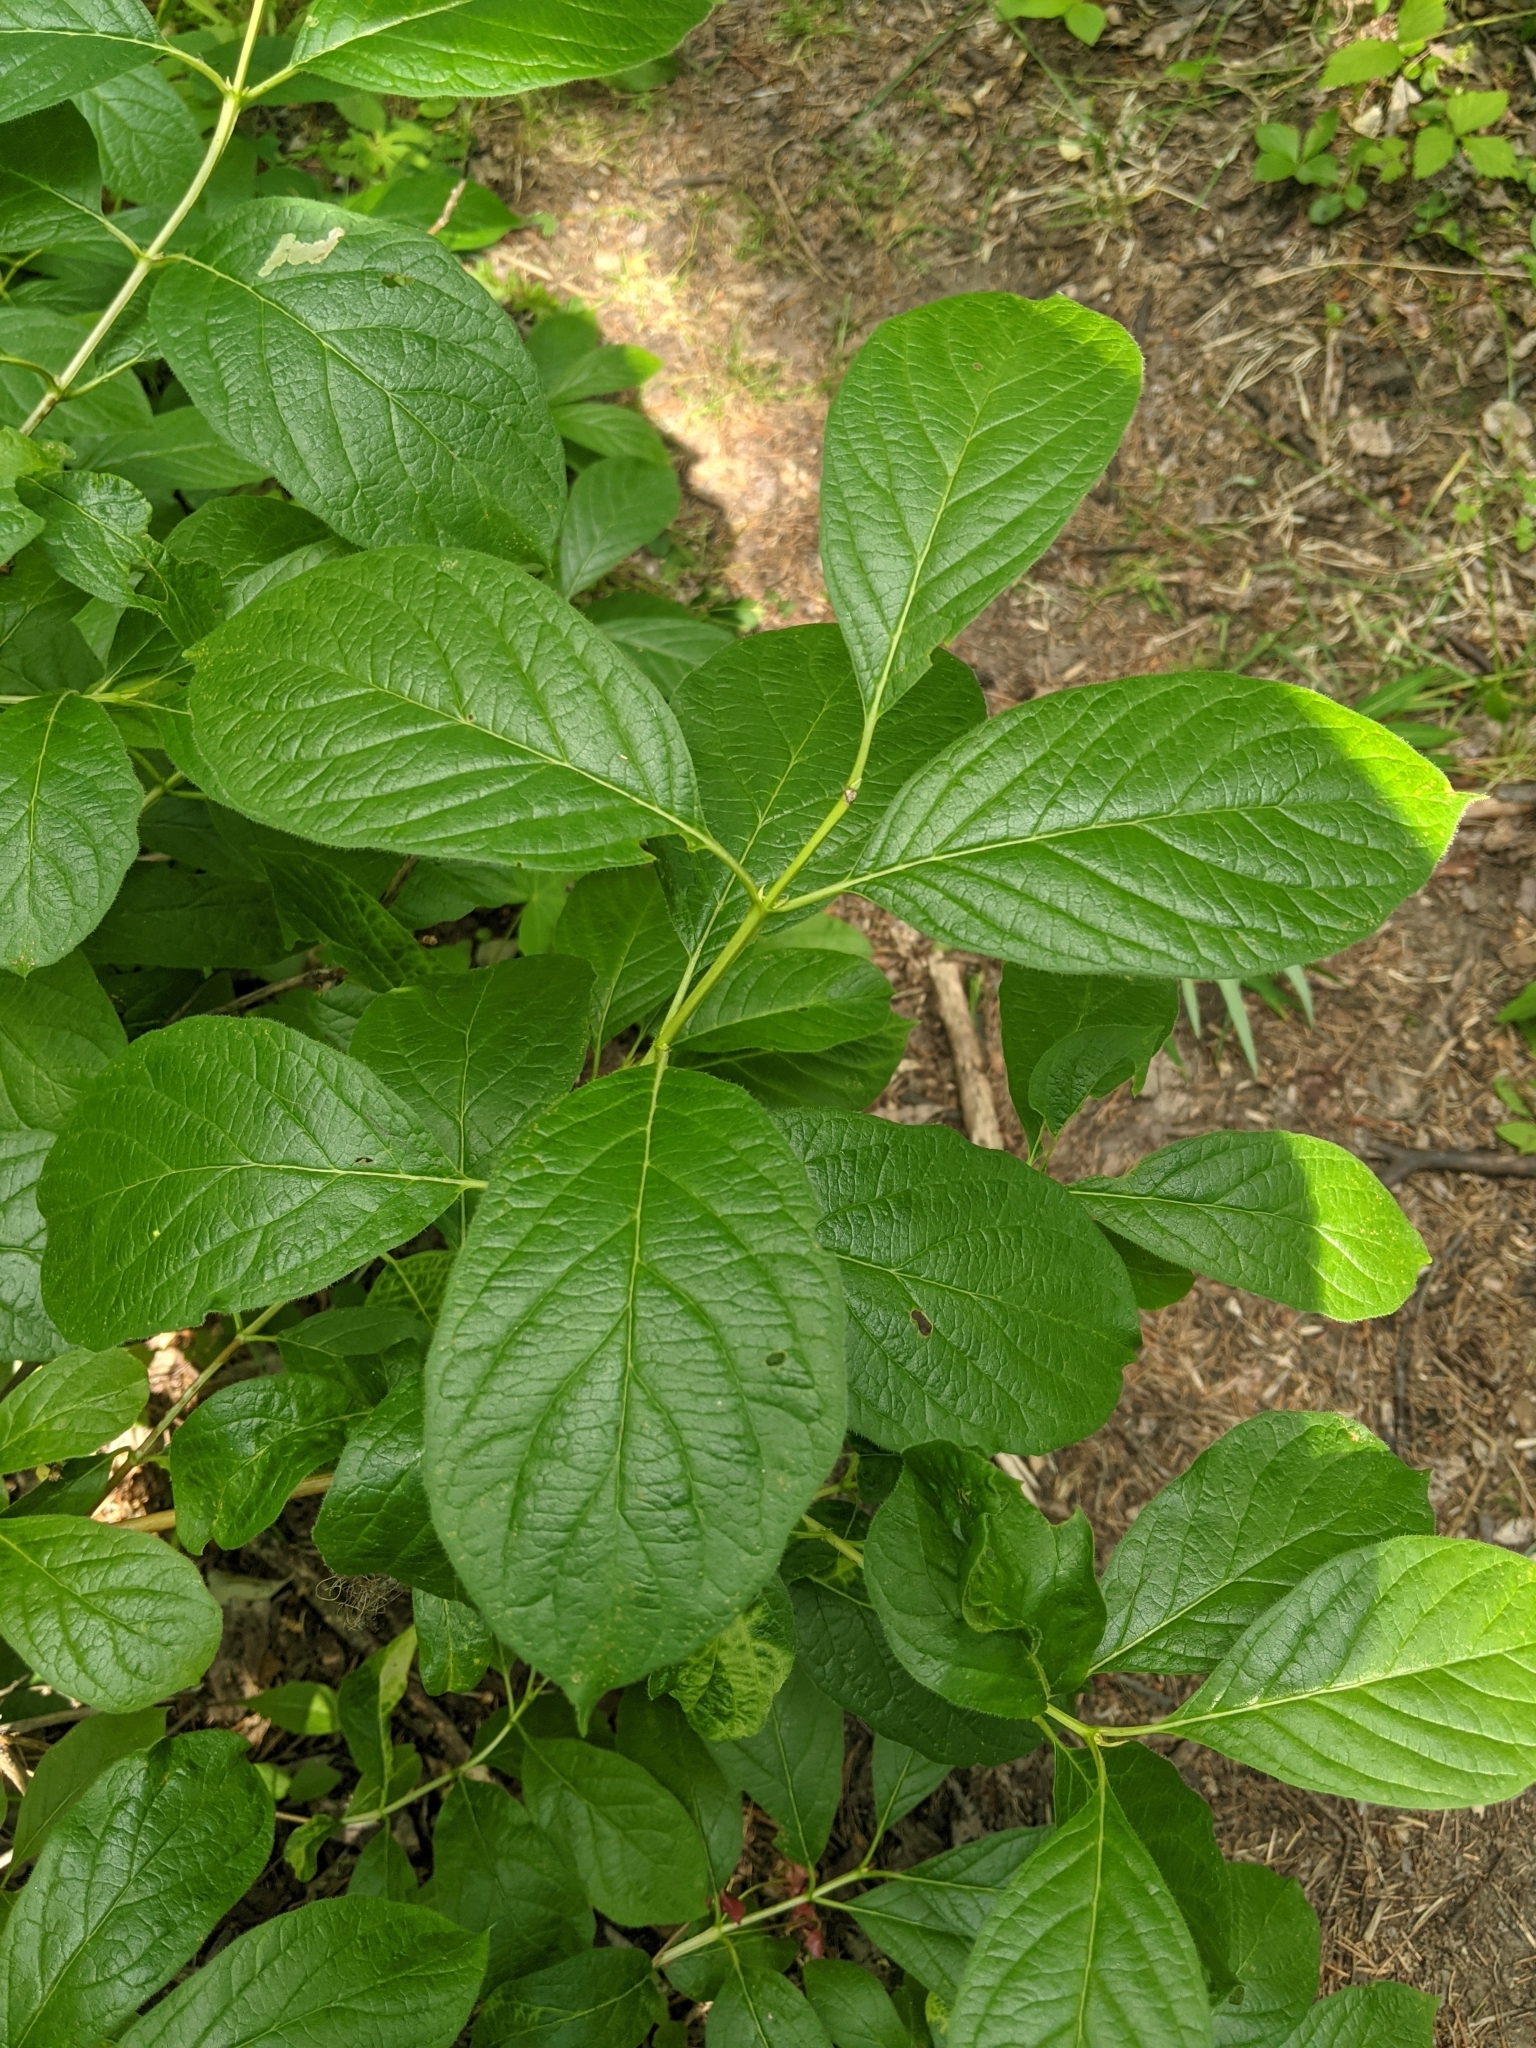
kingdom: Plantae
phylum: Tracheophyta
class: Magnoliopsida
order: Dipsacales
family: Caprifoliaceae
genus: Lonicera
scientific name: Lonicera involucrata
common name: Californian honeysuckle
